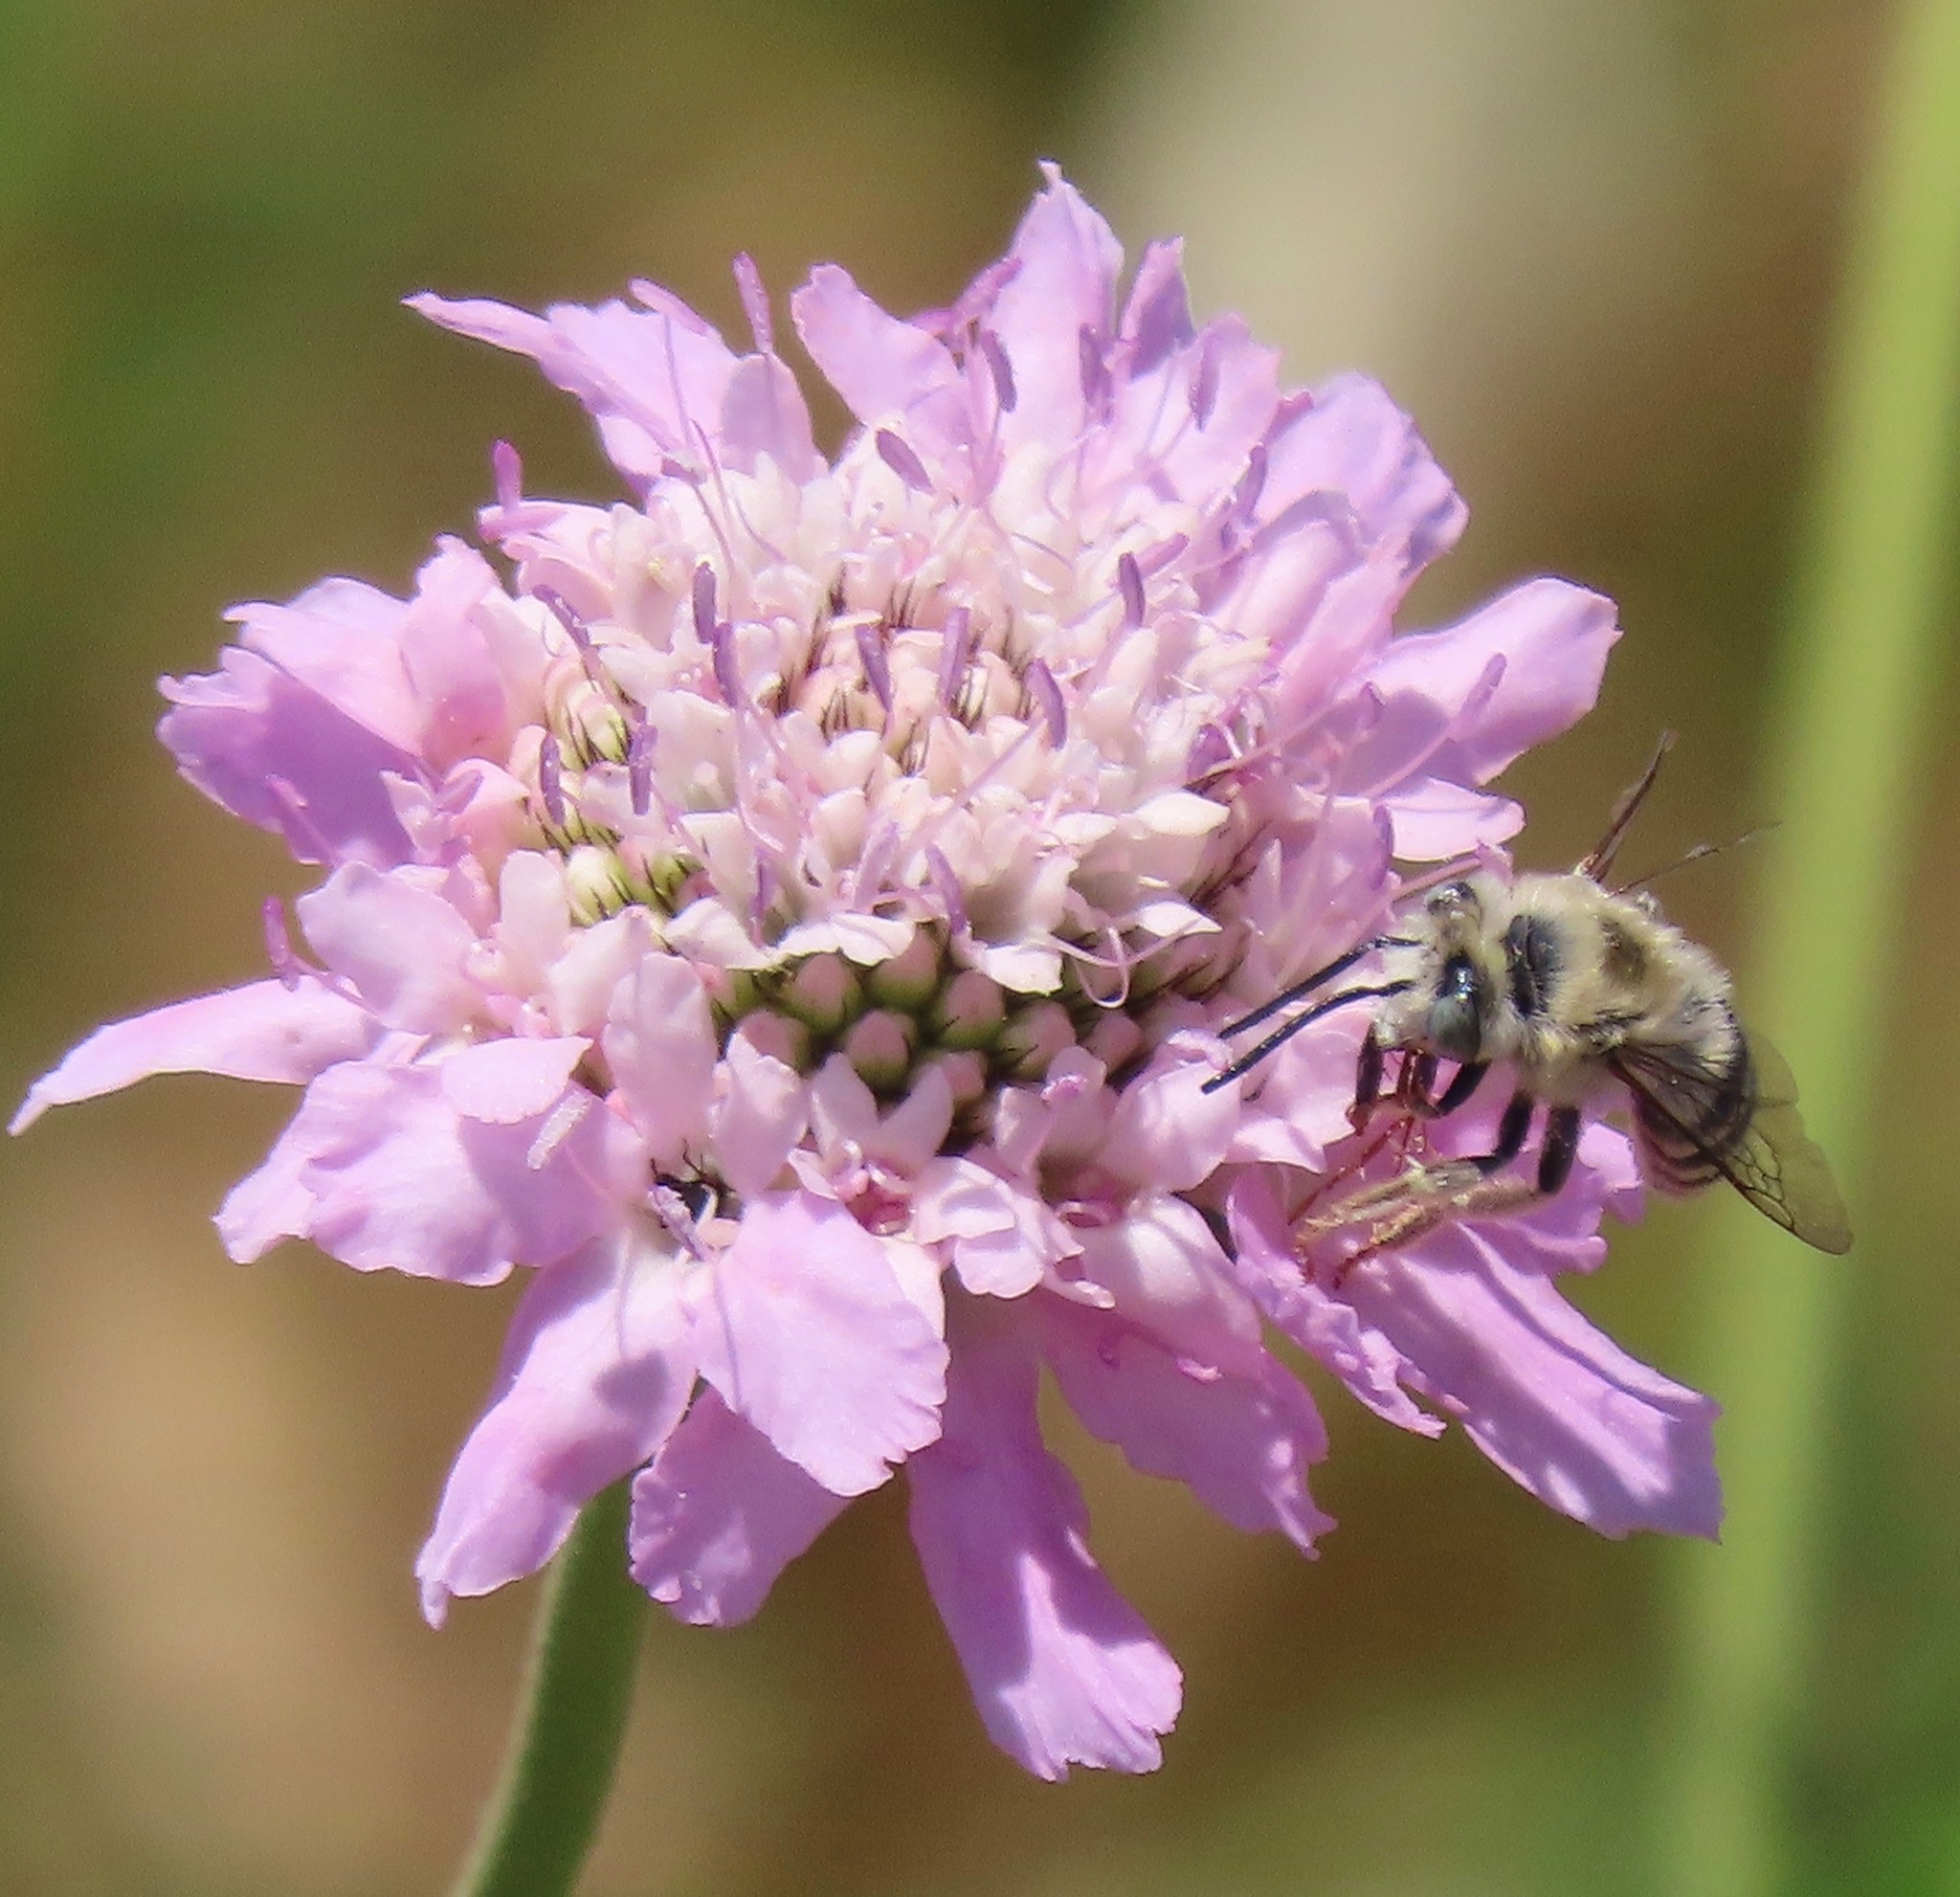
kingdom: Animalia
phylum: Arthropoda
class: Insecta
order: Hymenoptera
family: Apidae
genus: Anthophora
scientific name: Anthophora urbana
